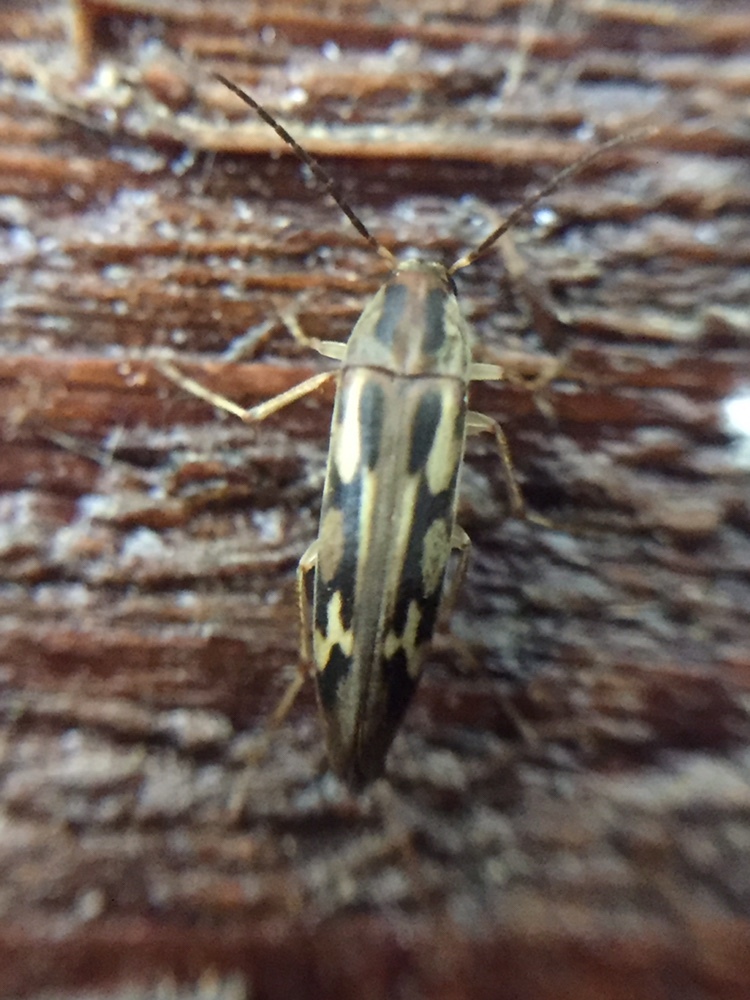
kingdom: Animalia
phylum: Arthropoda
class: Insecta
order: Neuroptera
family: Mesochrysopidae
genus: Allopterus
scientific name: Allopterus
